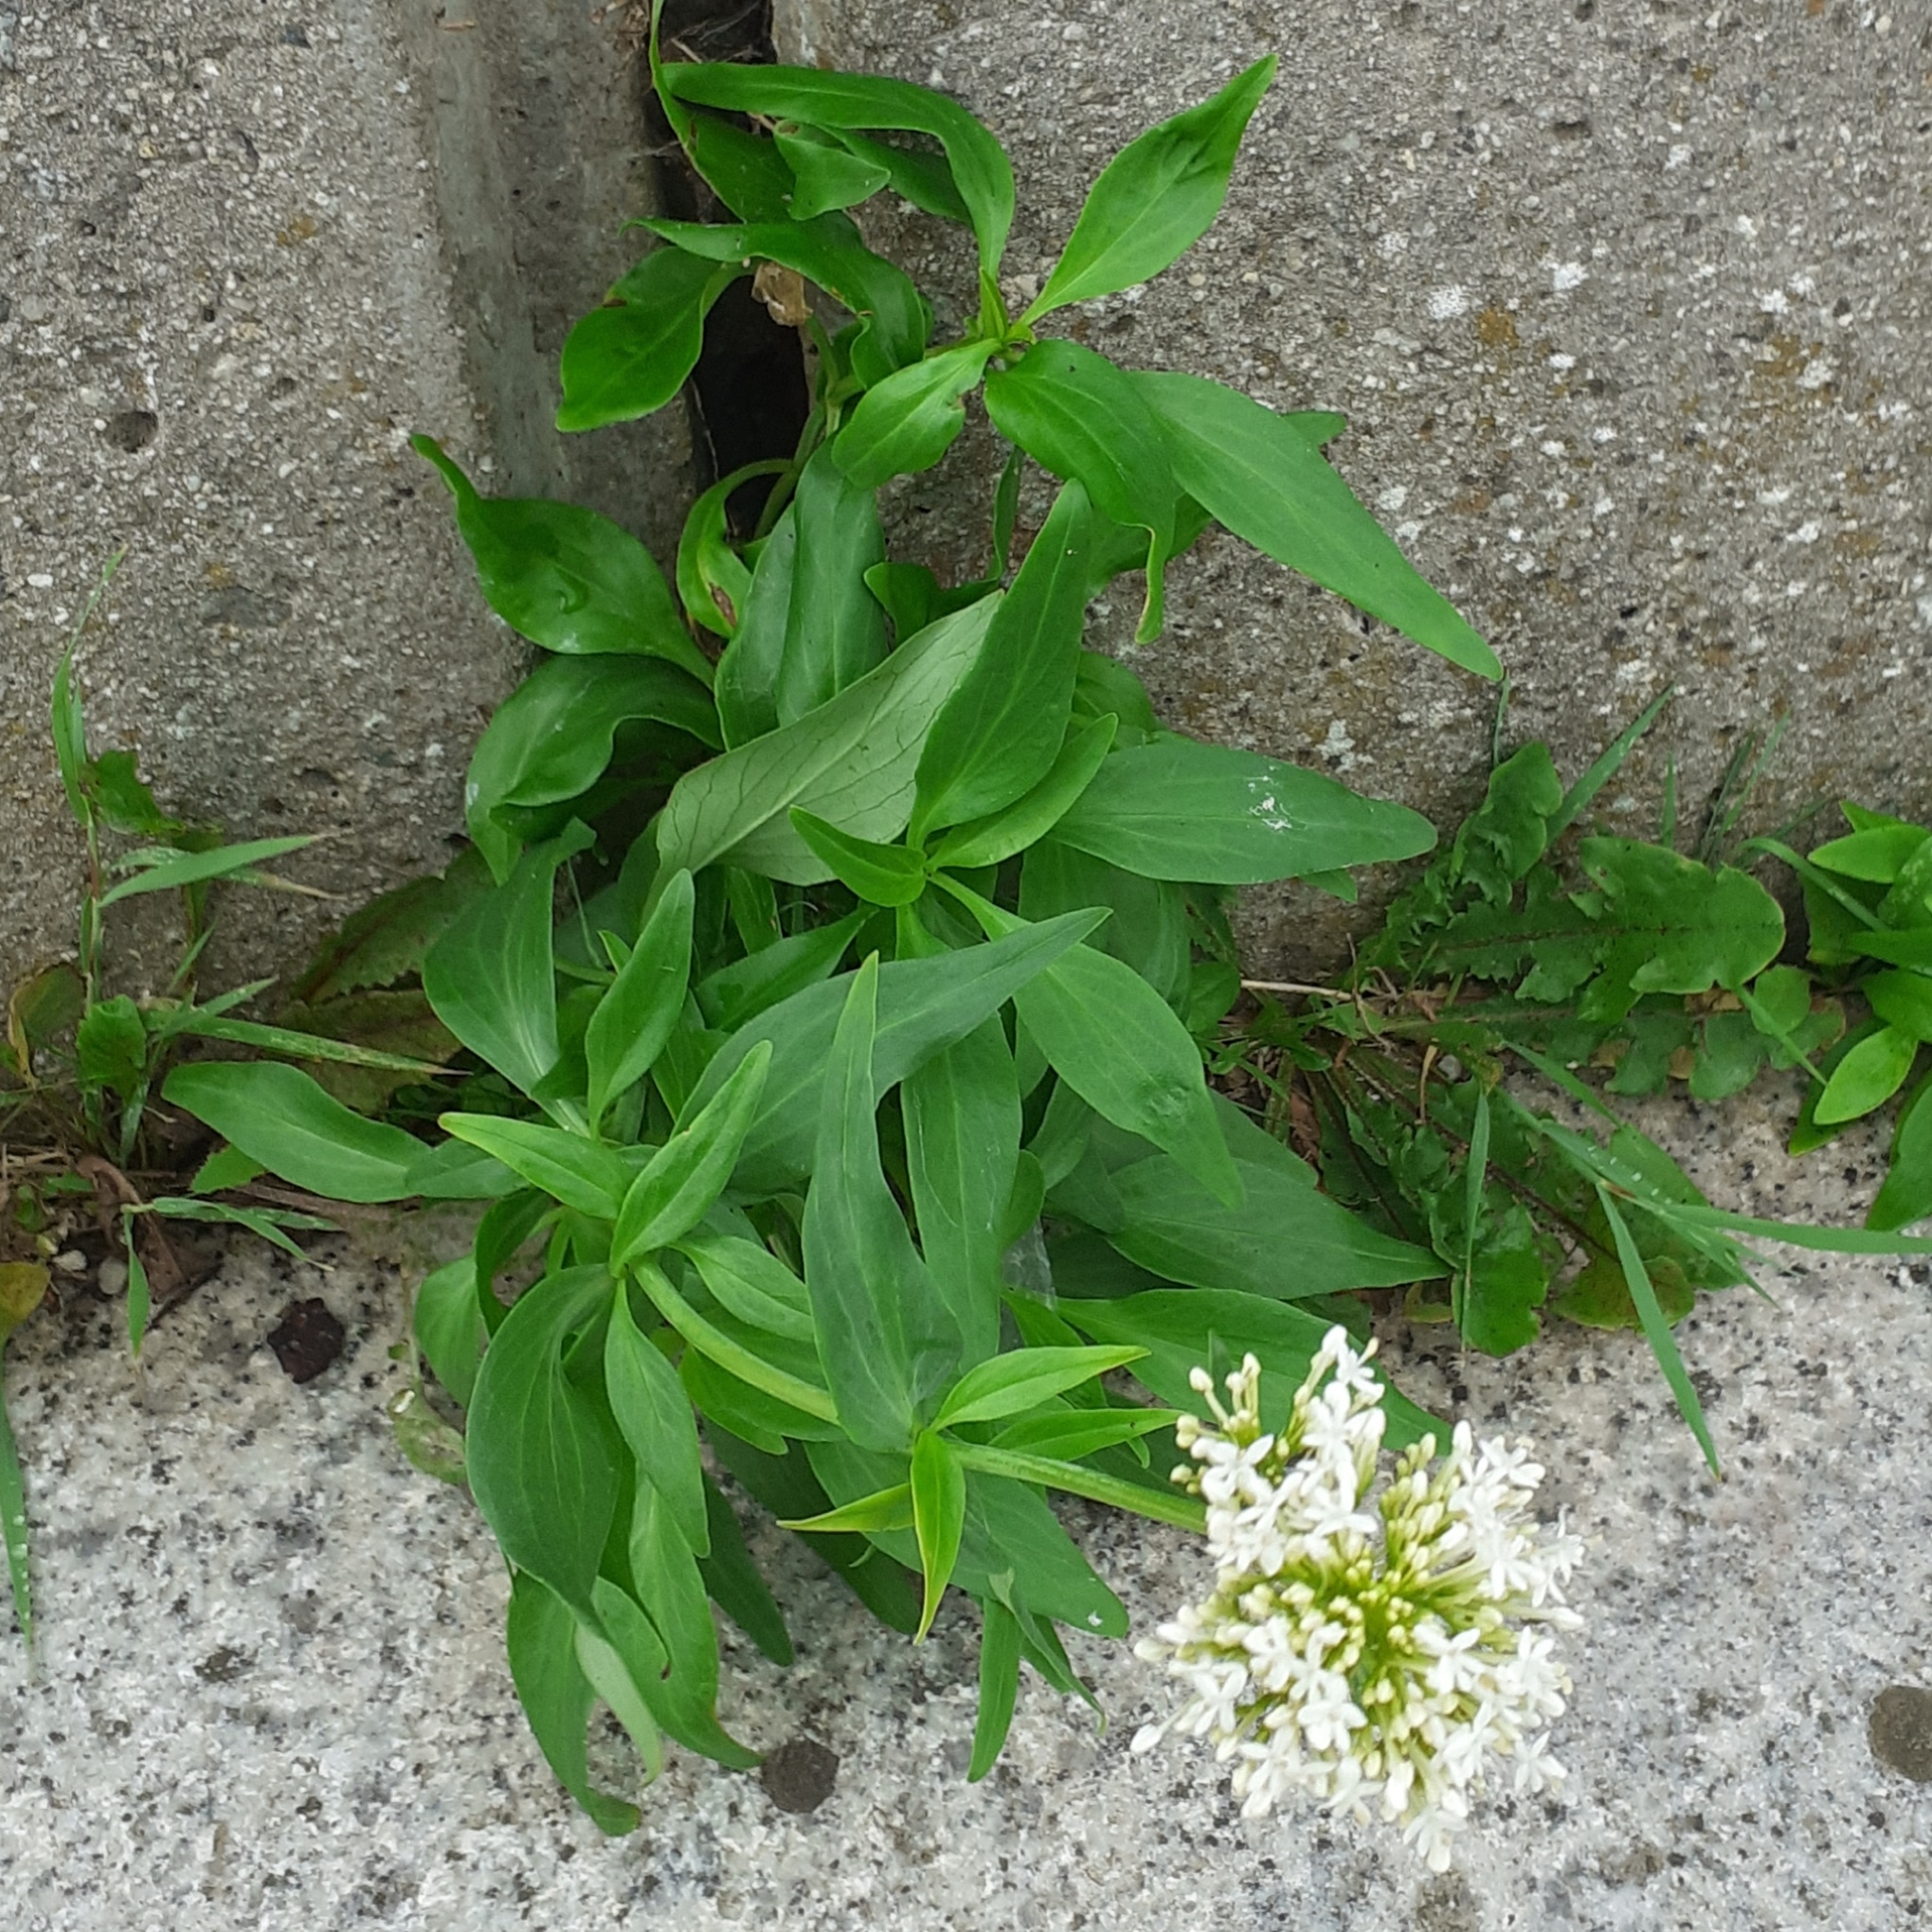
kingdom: Plantae
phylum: Tracheophyta
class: Magnoliopsida
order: Dipsacales
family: Caprifoliaceae
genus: Centranthus
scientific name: Centranthus ruber
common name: Red valerian
